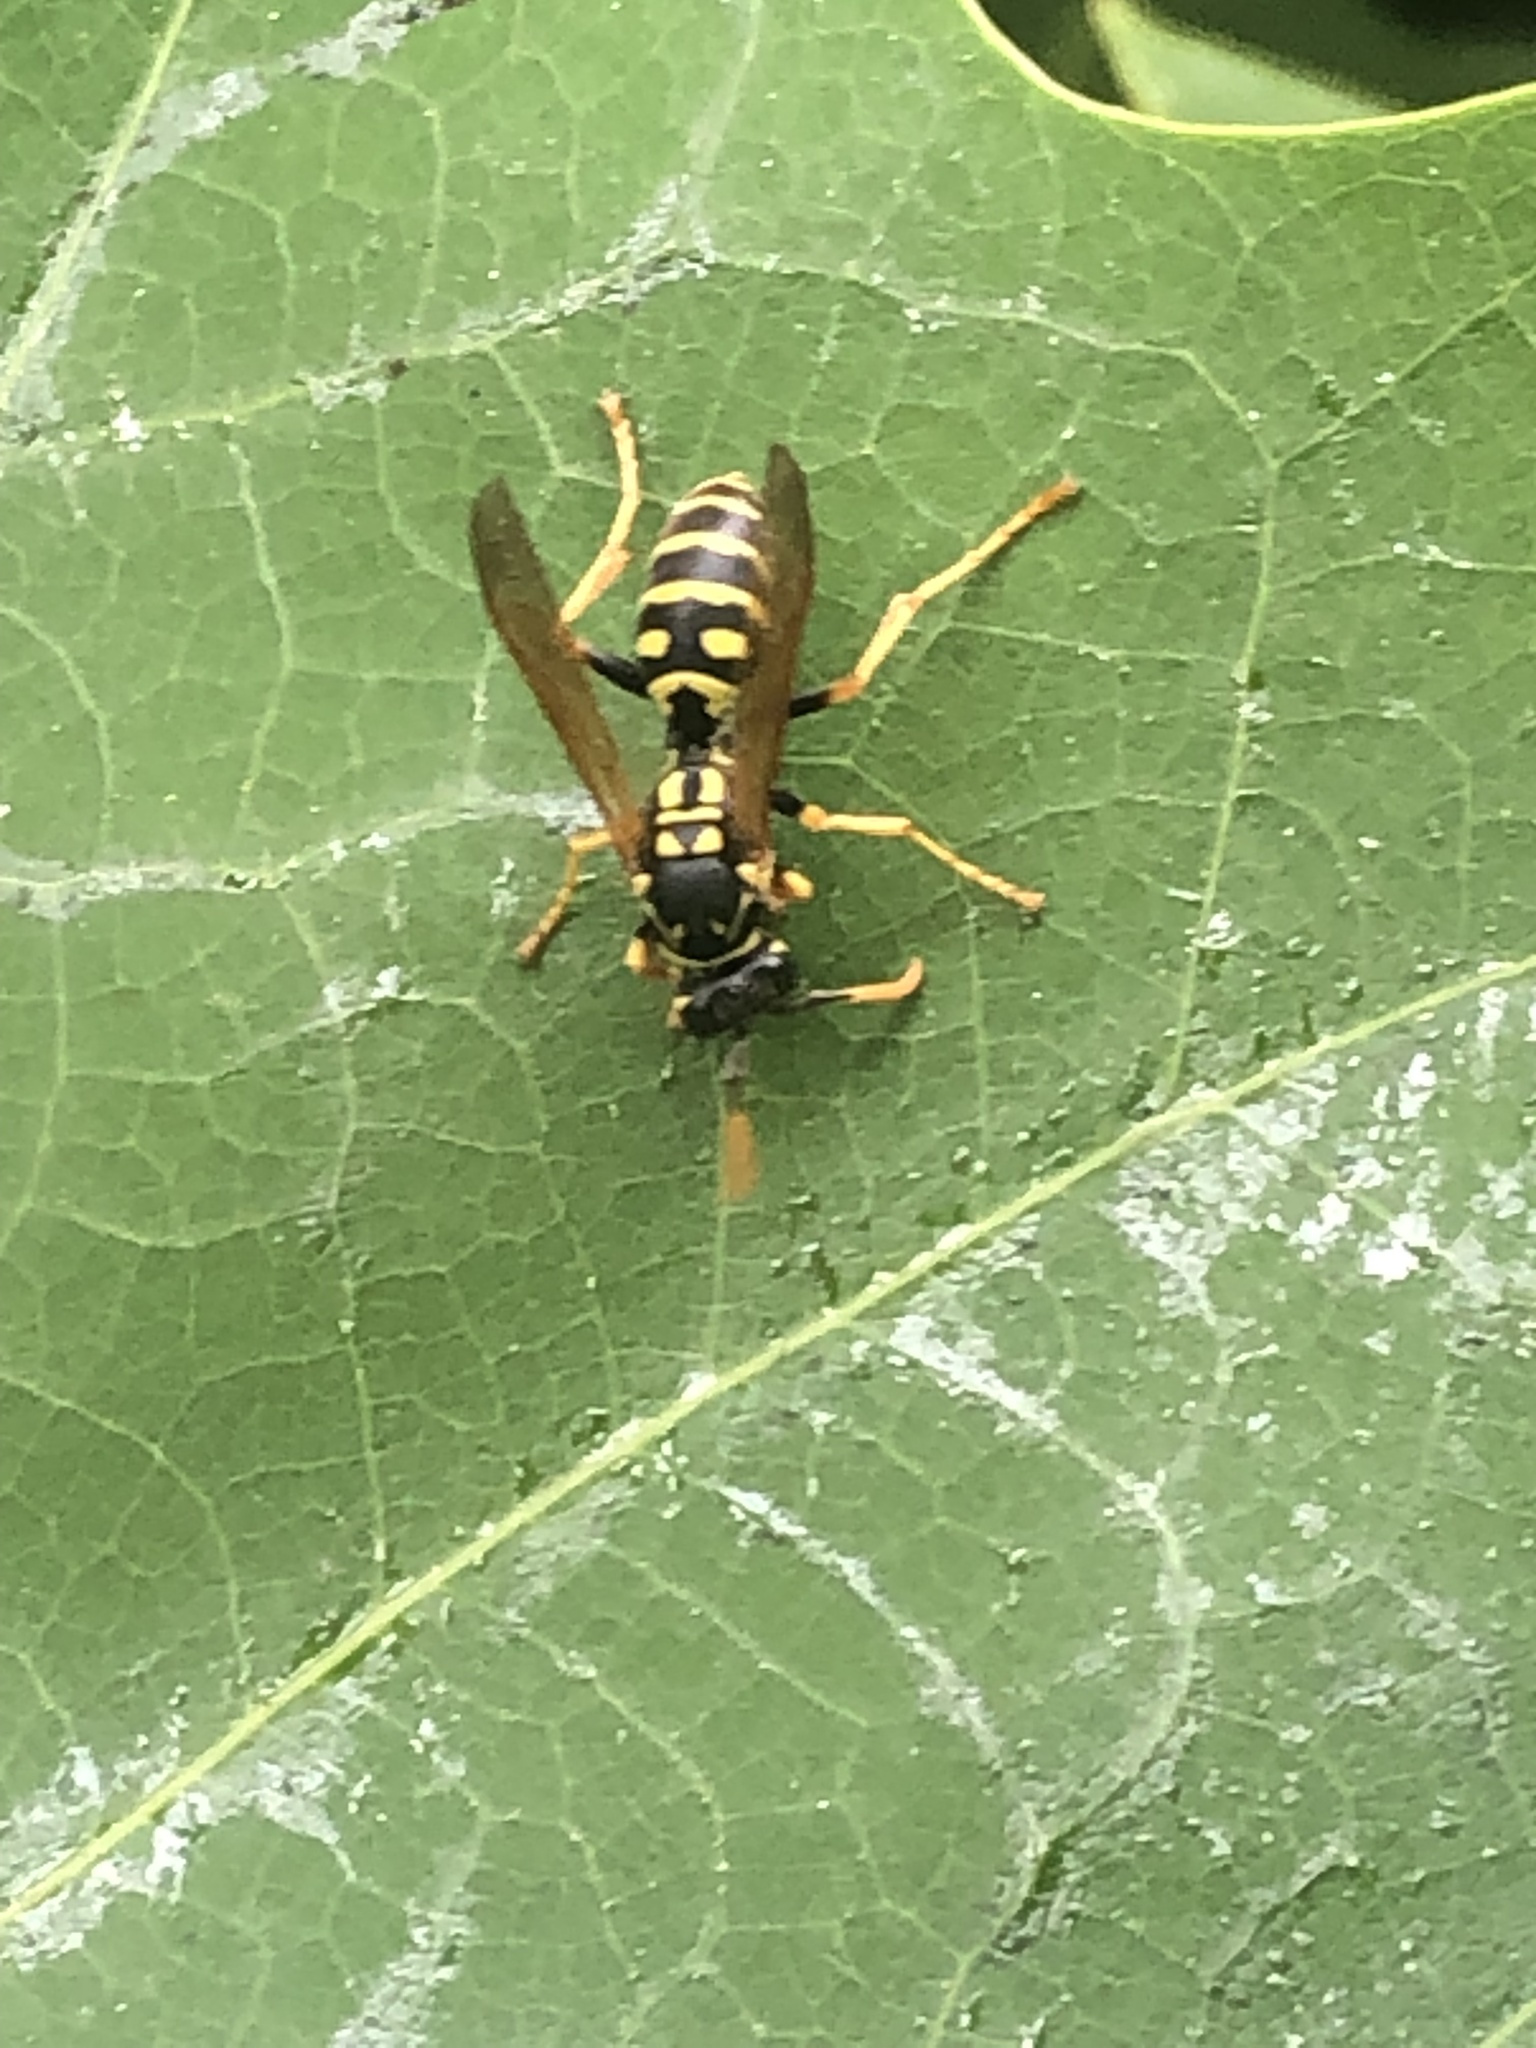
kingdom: Animalia
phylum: Arthropoda
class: Insecta
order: Hymenoptera
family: Eumenidae
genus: Polistes
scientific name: Polistes dominula
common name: Paper wasp
